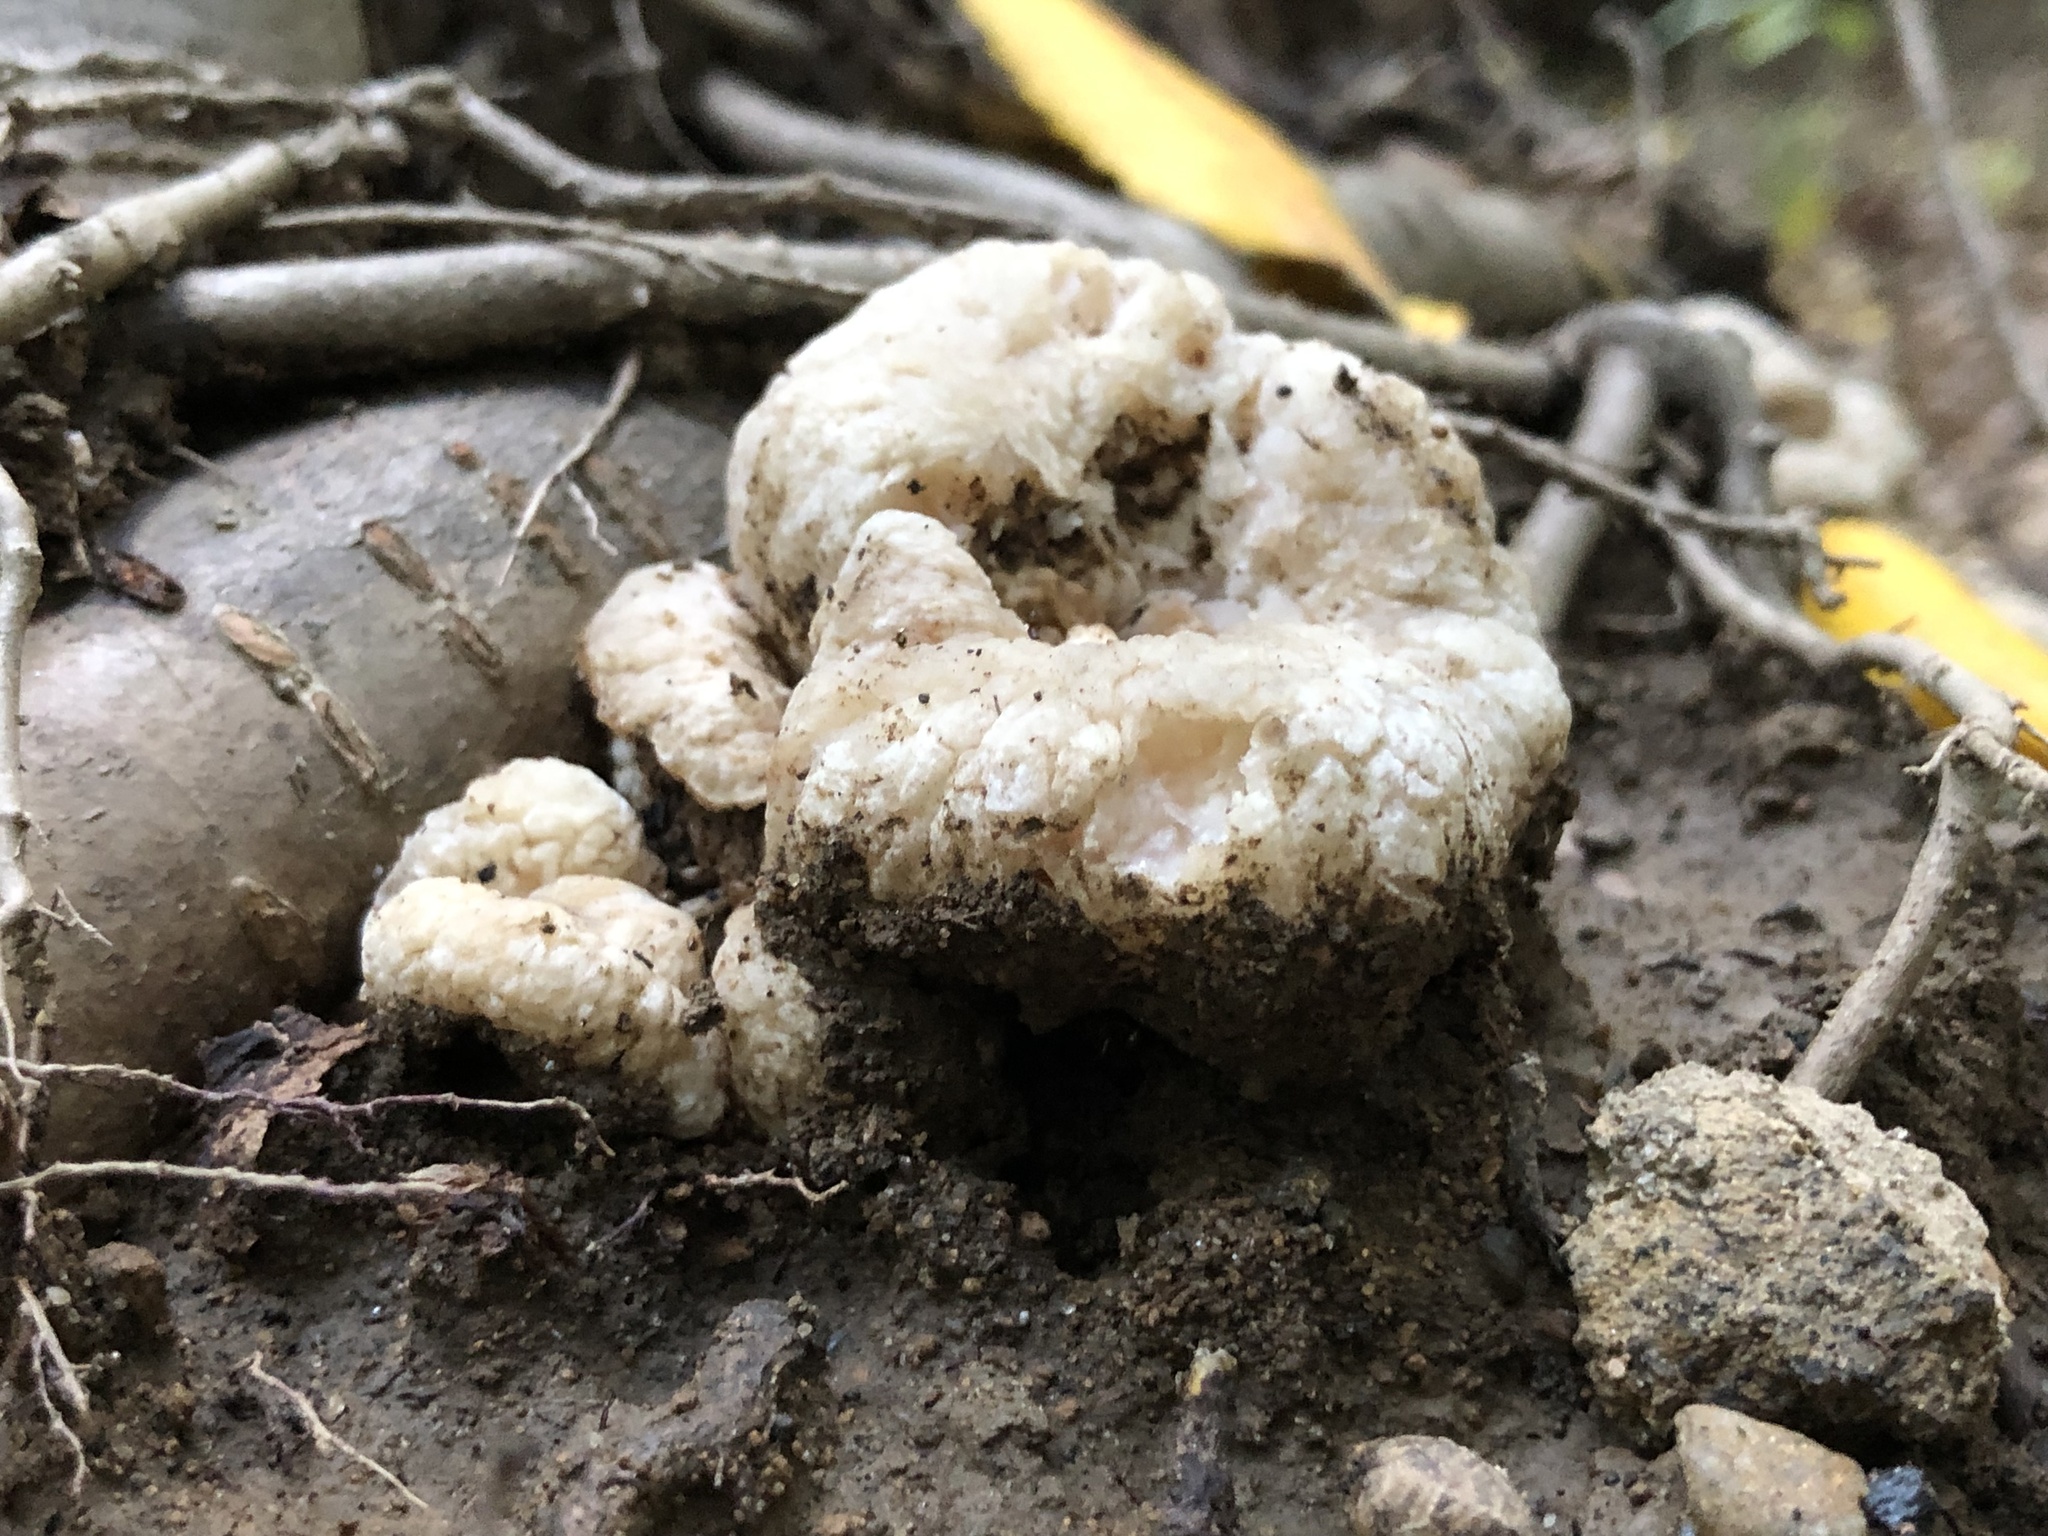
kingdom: Fungi
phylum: Basidiomycota
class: Agaricomycetes
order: Agaricales
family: Entolomataceae
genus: Entoloma
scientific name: Entoloma abortivum
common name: Aborted entoloma
